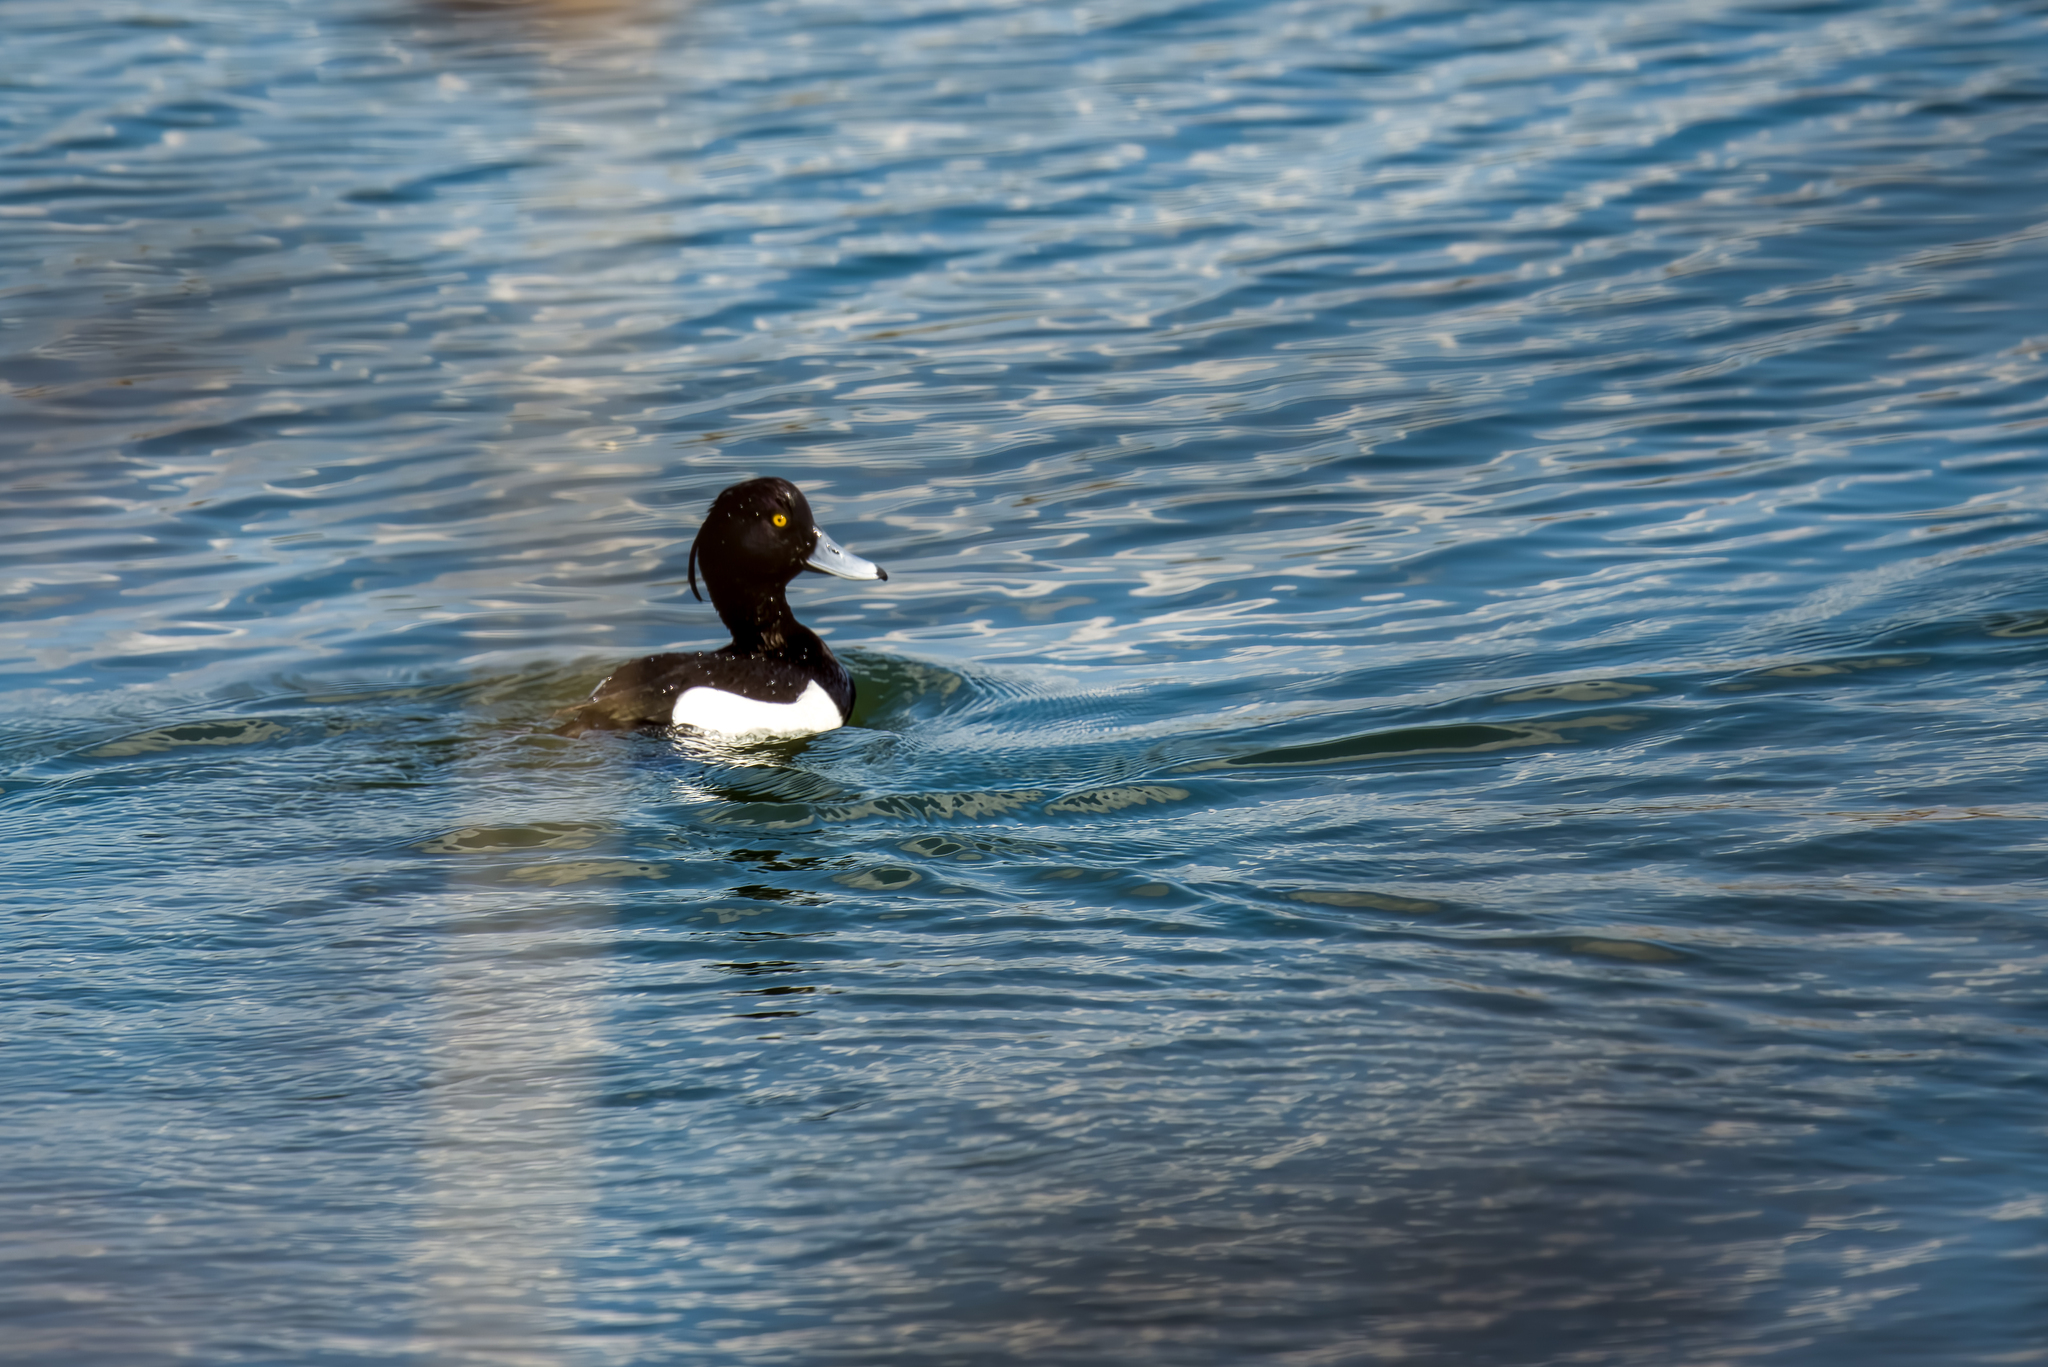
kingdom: Animalia
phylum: Chordata
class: Aves
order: Anseriformes
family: Anatidae
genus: Aythya
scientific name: Aythya fuligula
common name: Tufted duck
